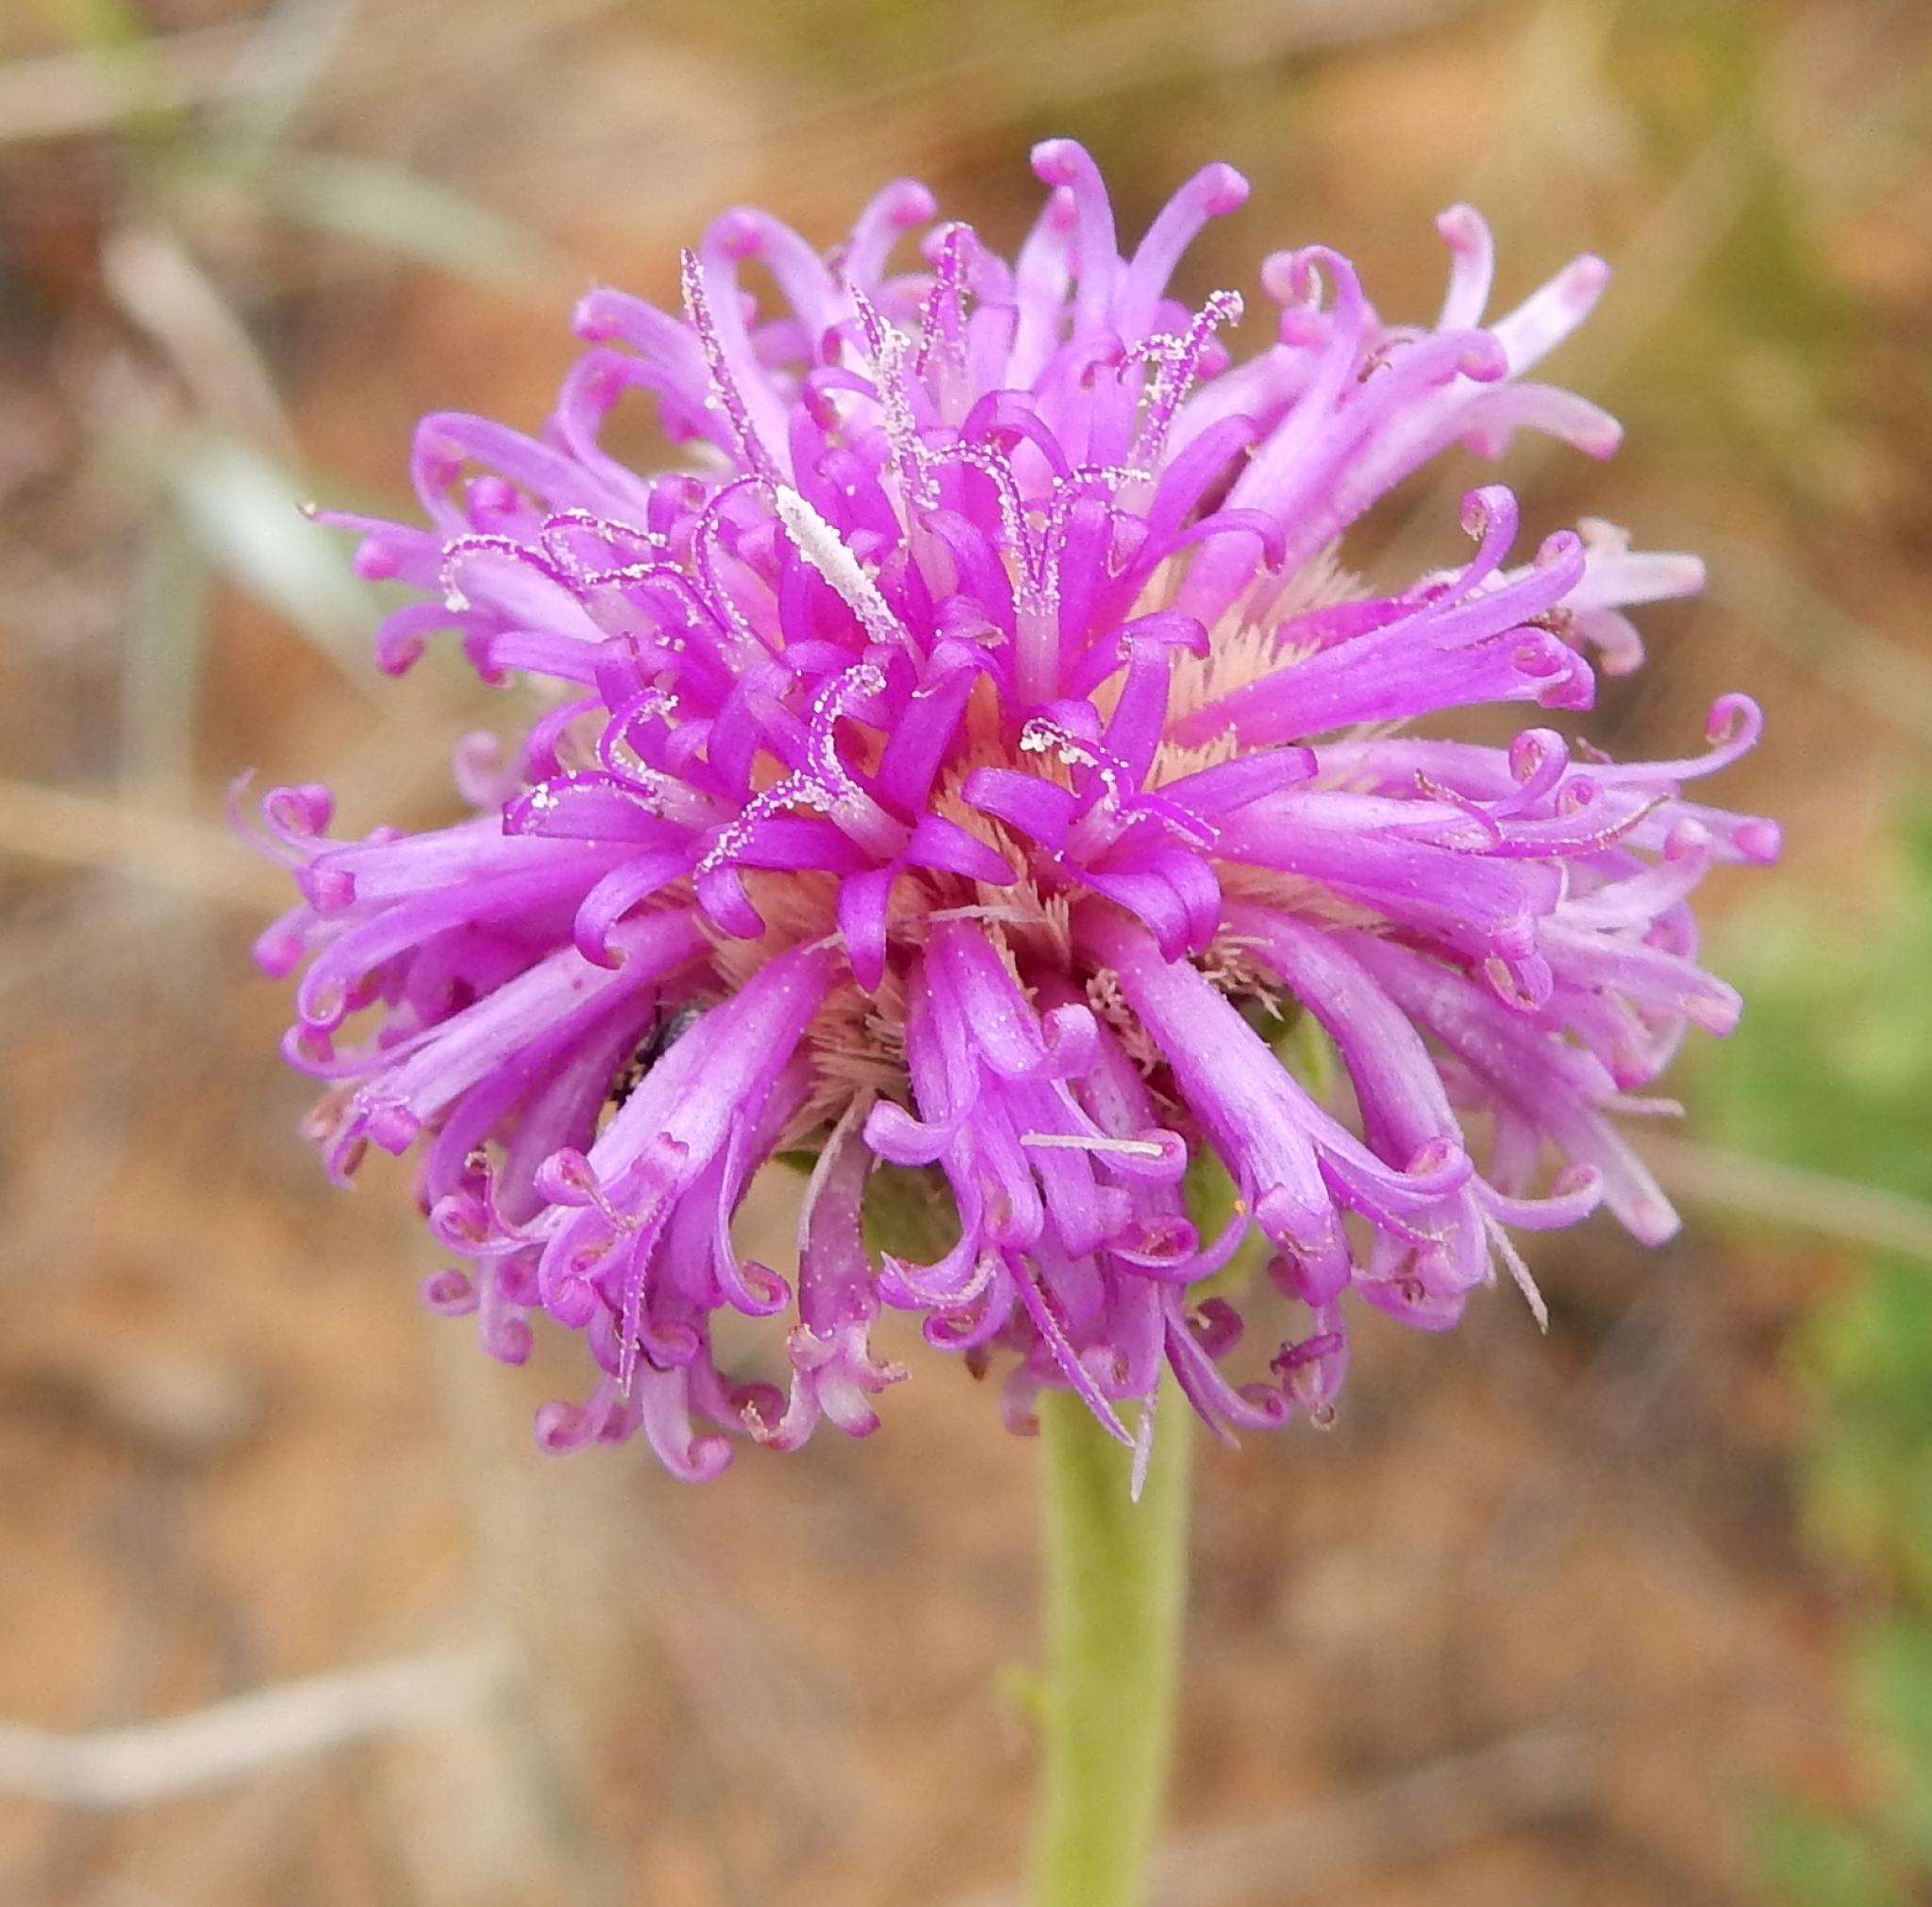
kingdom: Plantae
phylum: Tracheophyta
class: Magnoliopsida
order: Asterales
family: Asteraceae
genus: Pseudopegolettia
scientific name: Pseudopegolettia tenella
